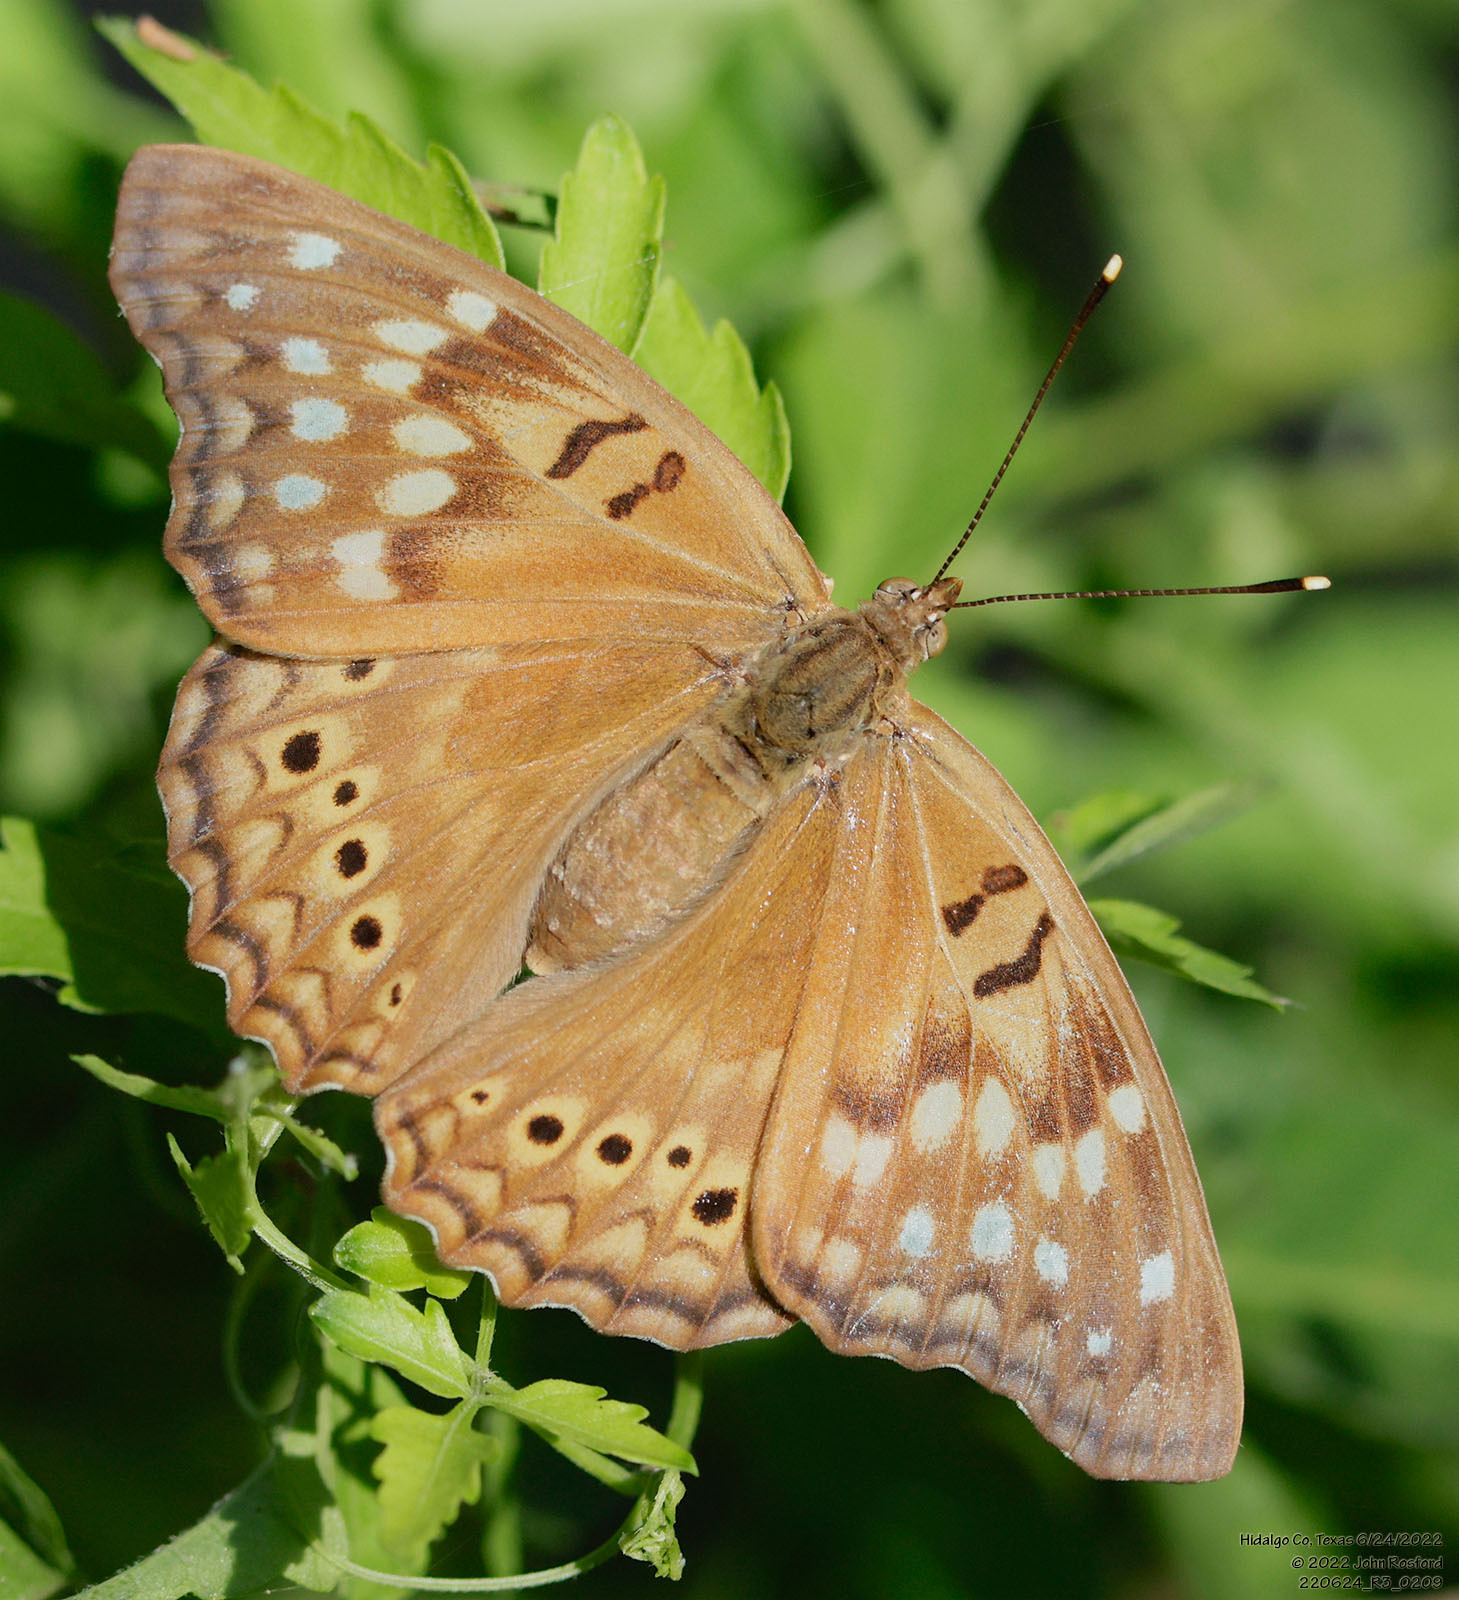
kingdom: Animalia
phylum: Arthropoda
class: Insecta
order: Lepidoptera
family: Nymphalidae
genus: Asterocampa
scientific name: Asterocampa clyton
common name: Tawny emperor
